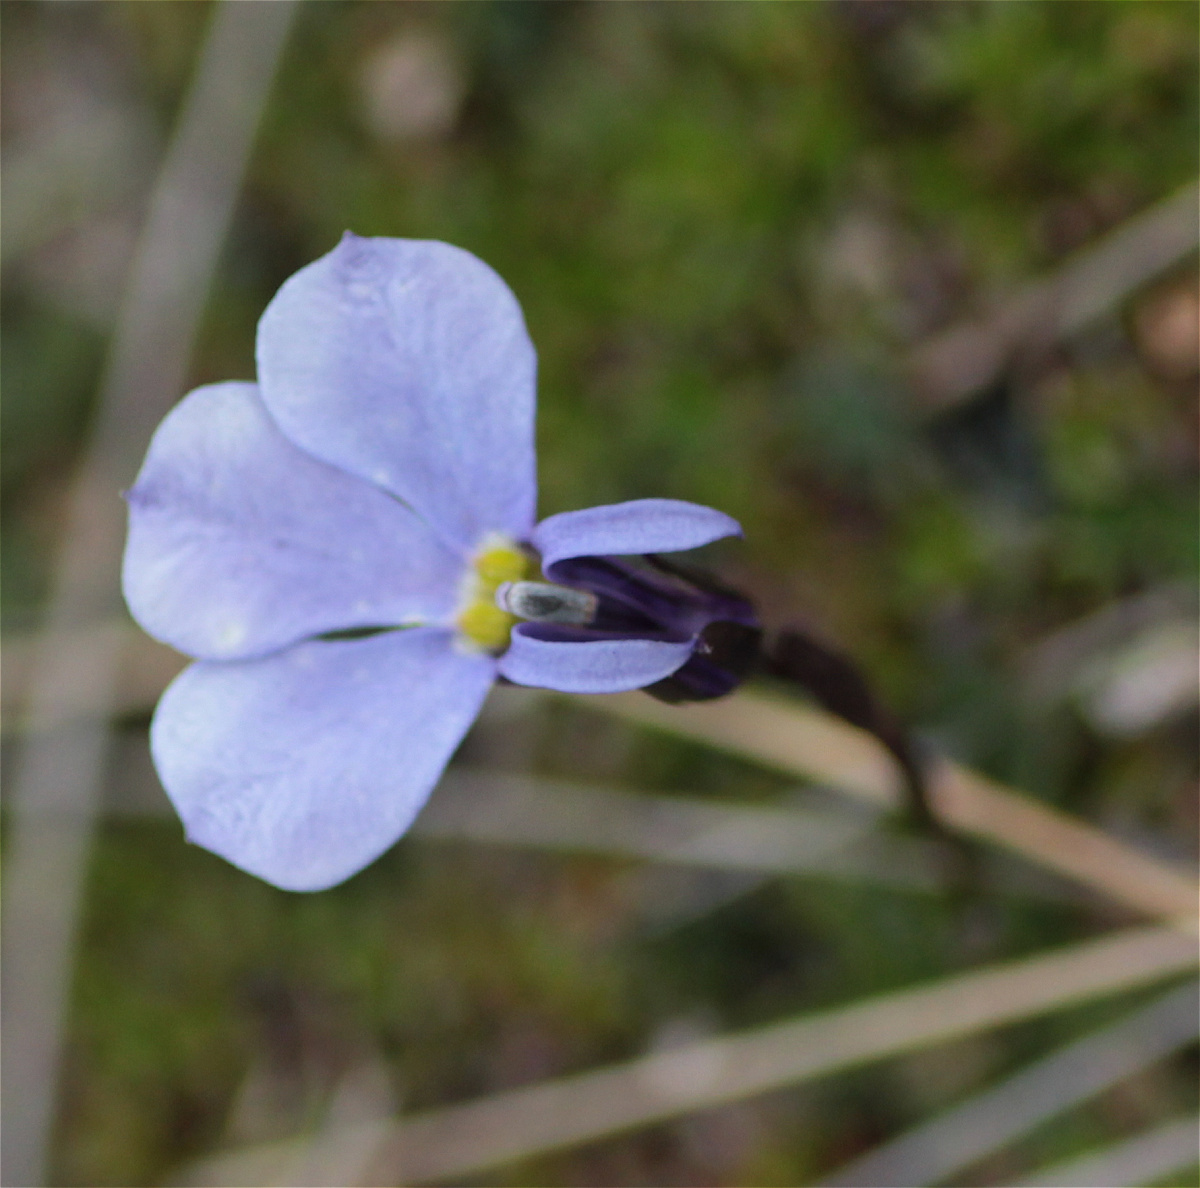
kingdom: Plantae
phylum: Tracheophyta
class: Magnoliopsida
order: Asterales
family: Campanulaceae
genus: Lobelia
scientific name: Lobelia tenera
